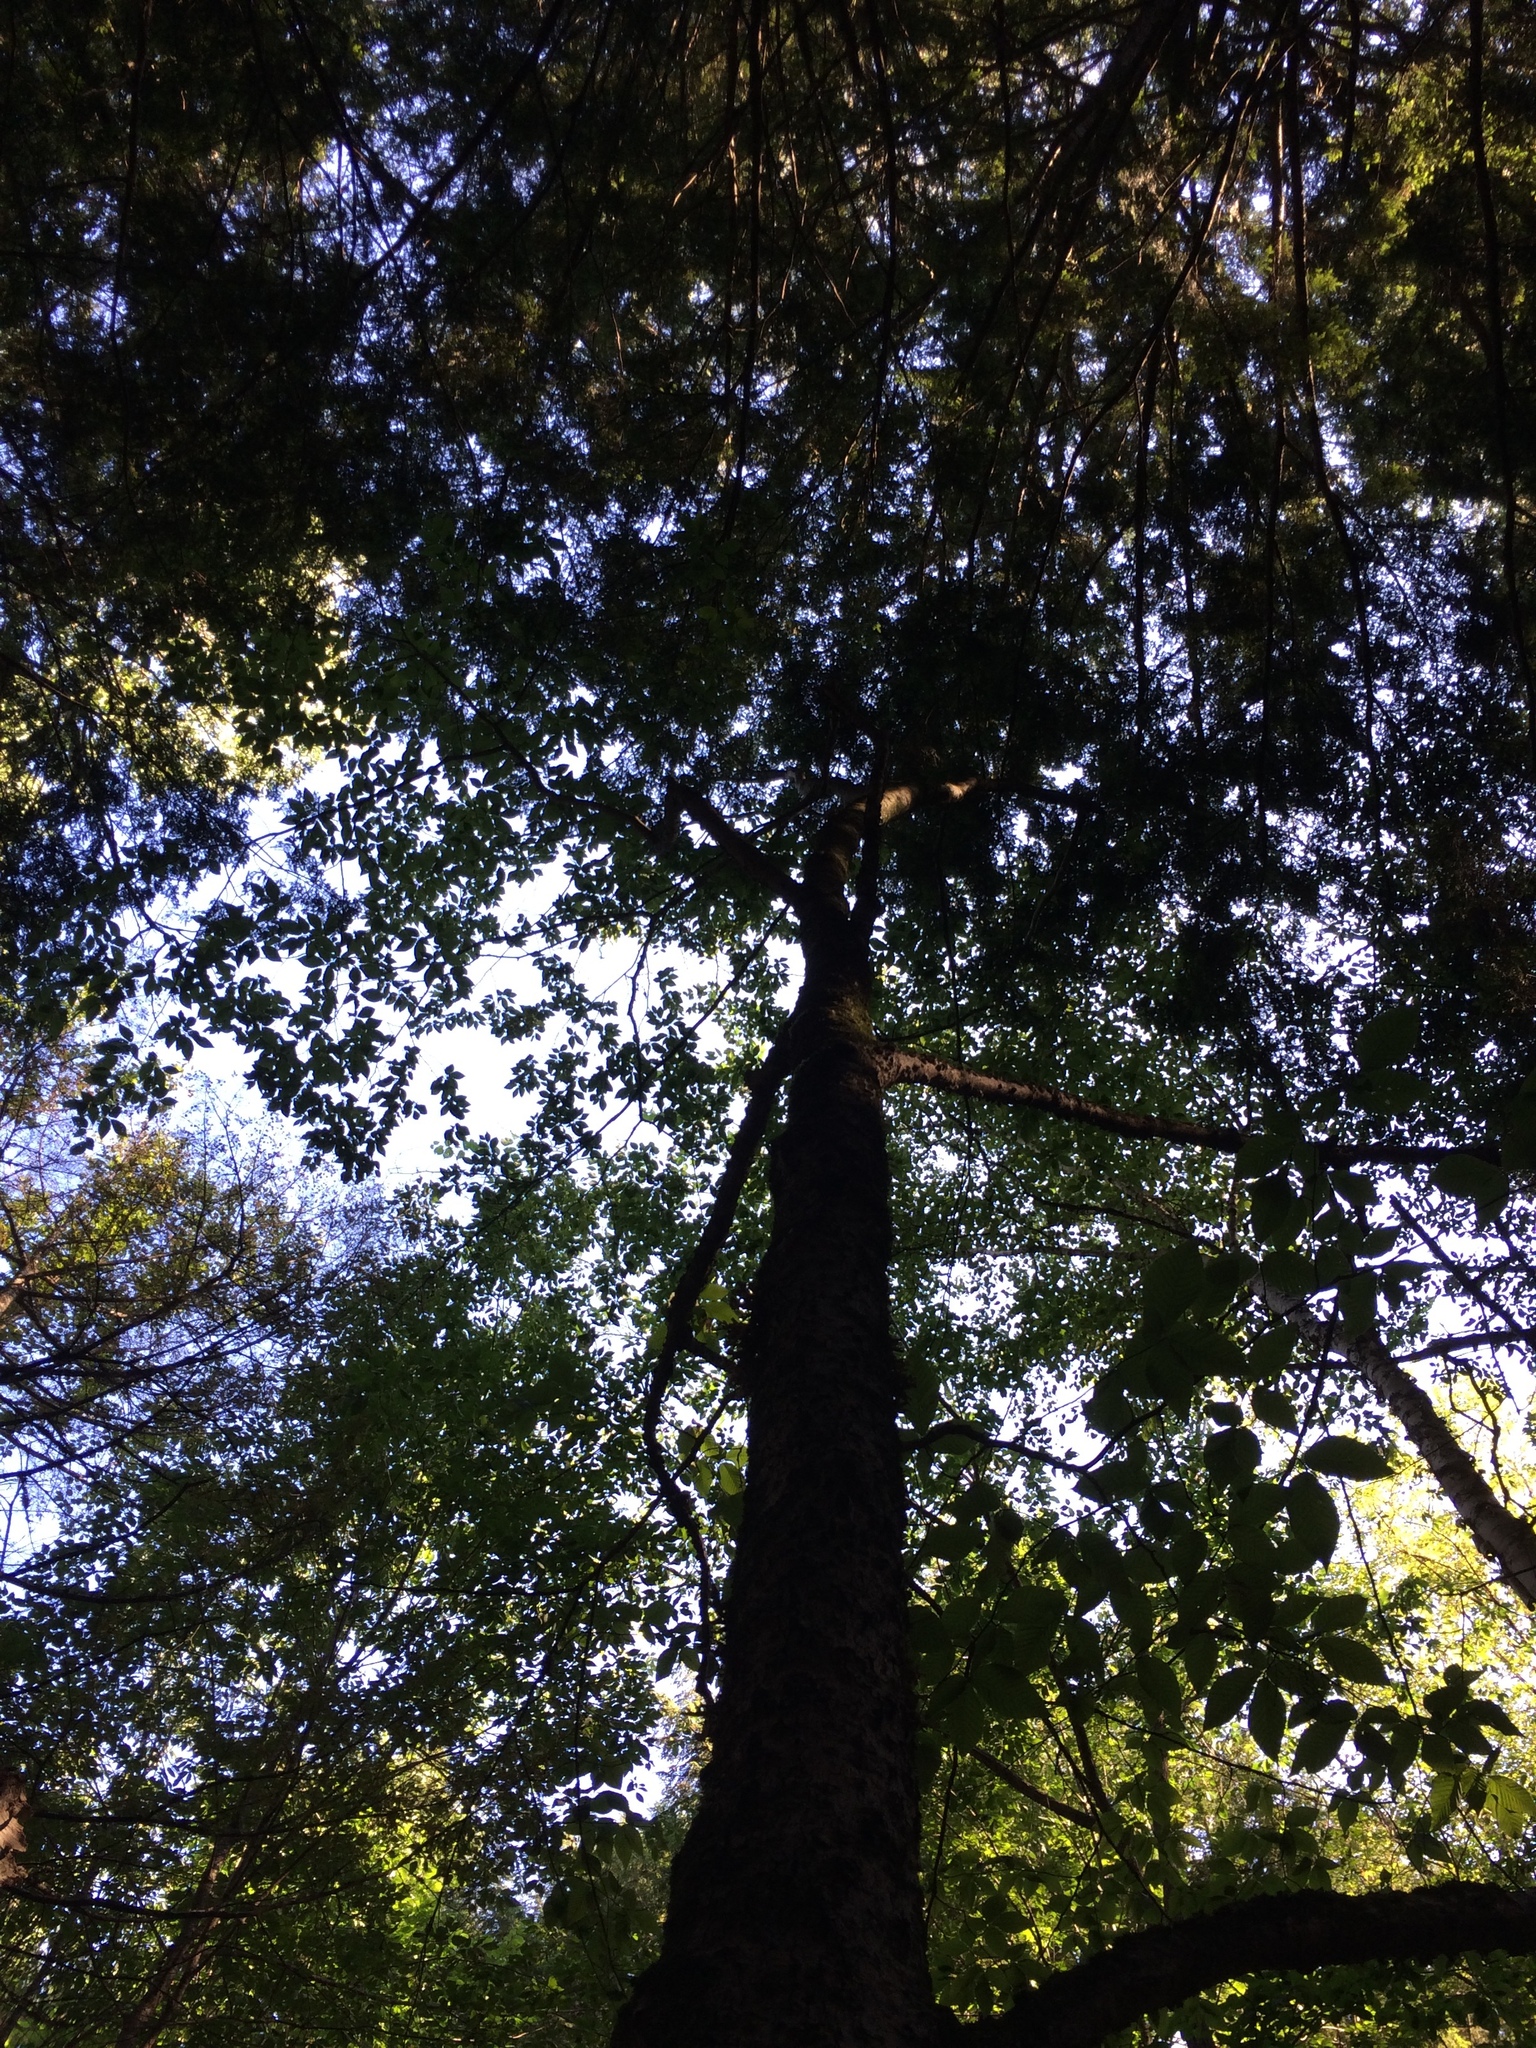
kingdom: Plantae
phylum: Tracheophyta
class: Magnoliopsida
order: Fagales
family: Fagaceae
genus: Fagus
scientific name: Fagus grandifolia
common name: American beech
